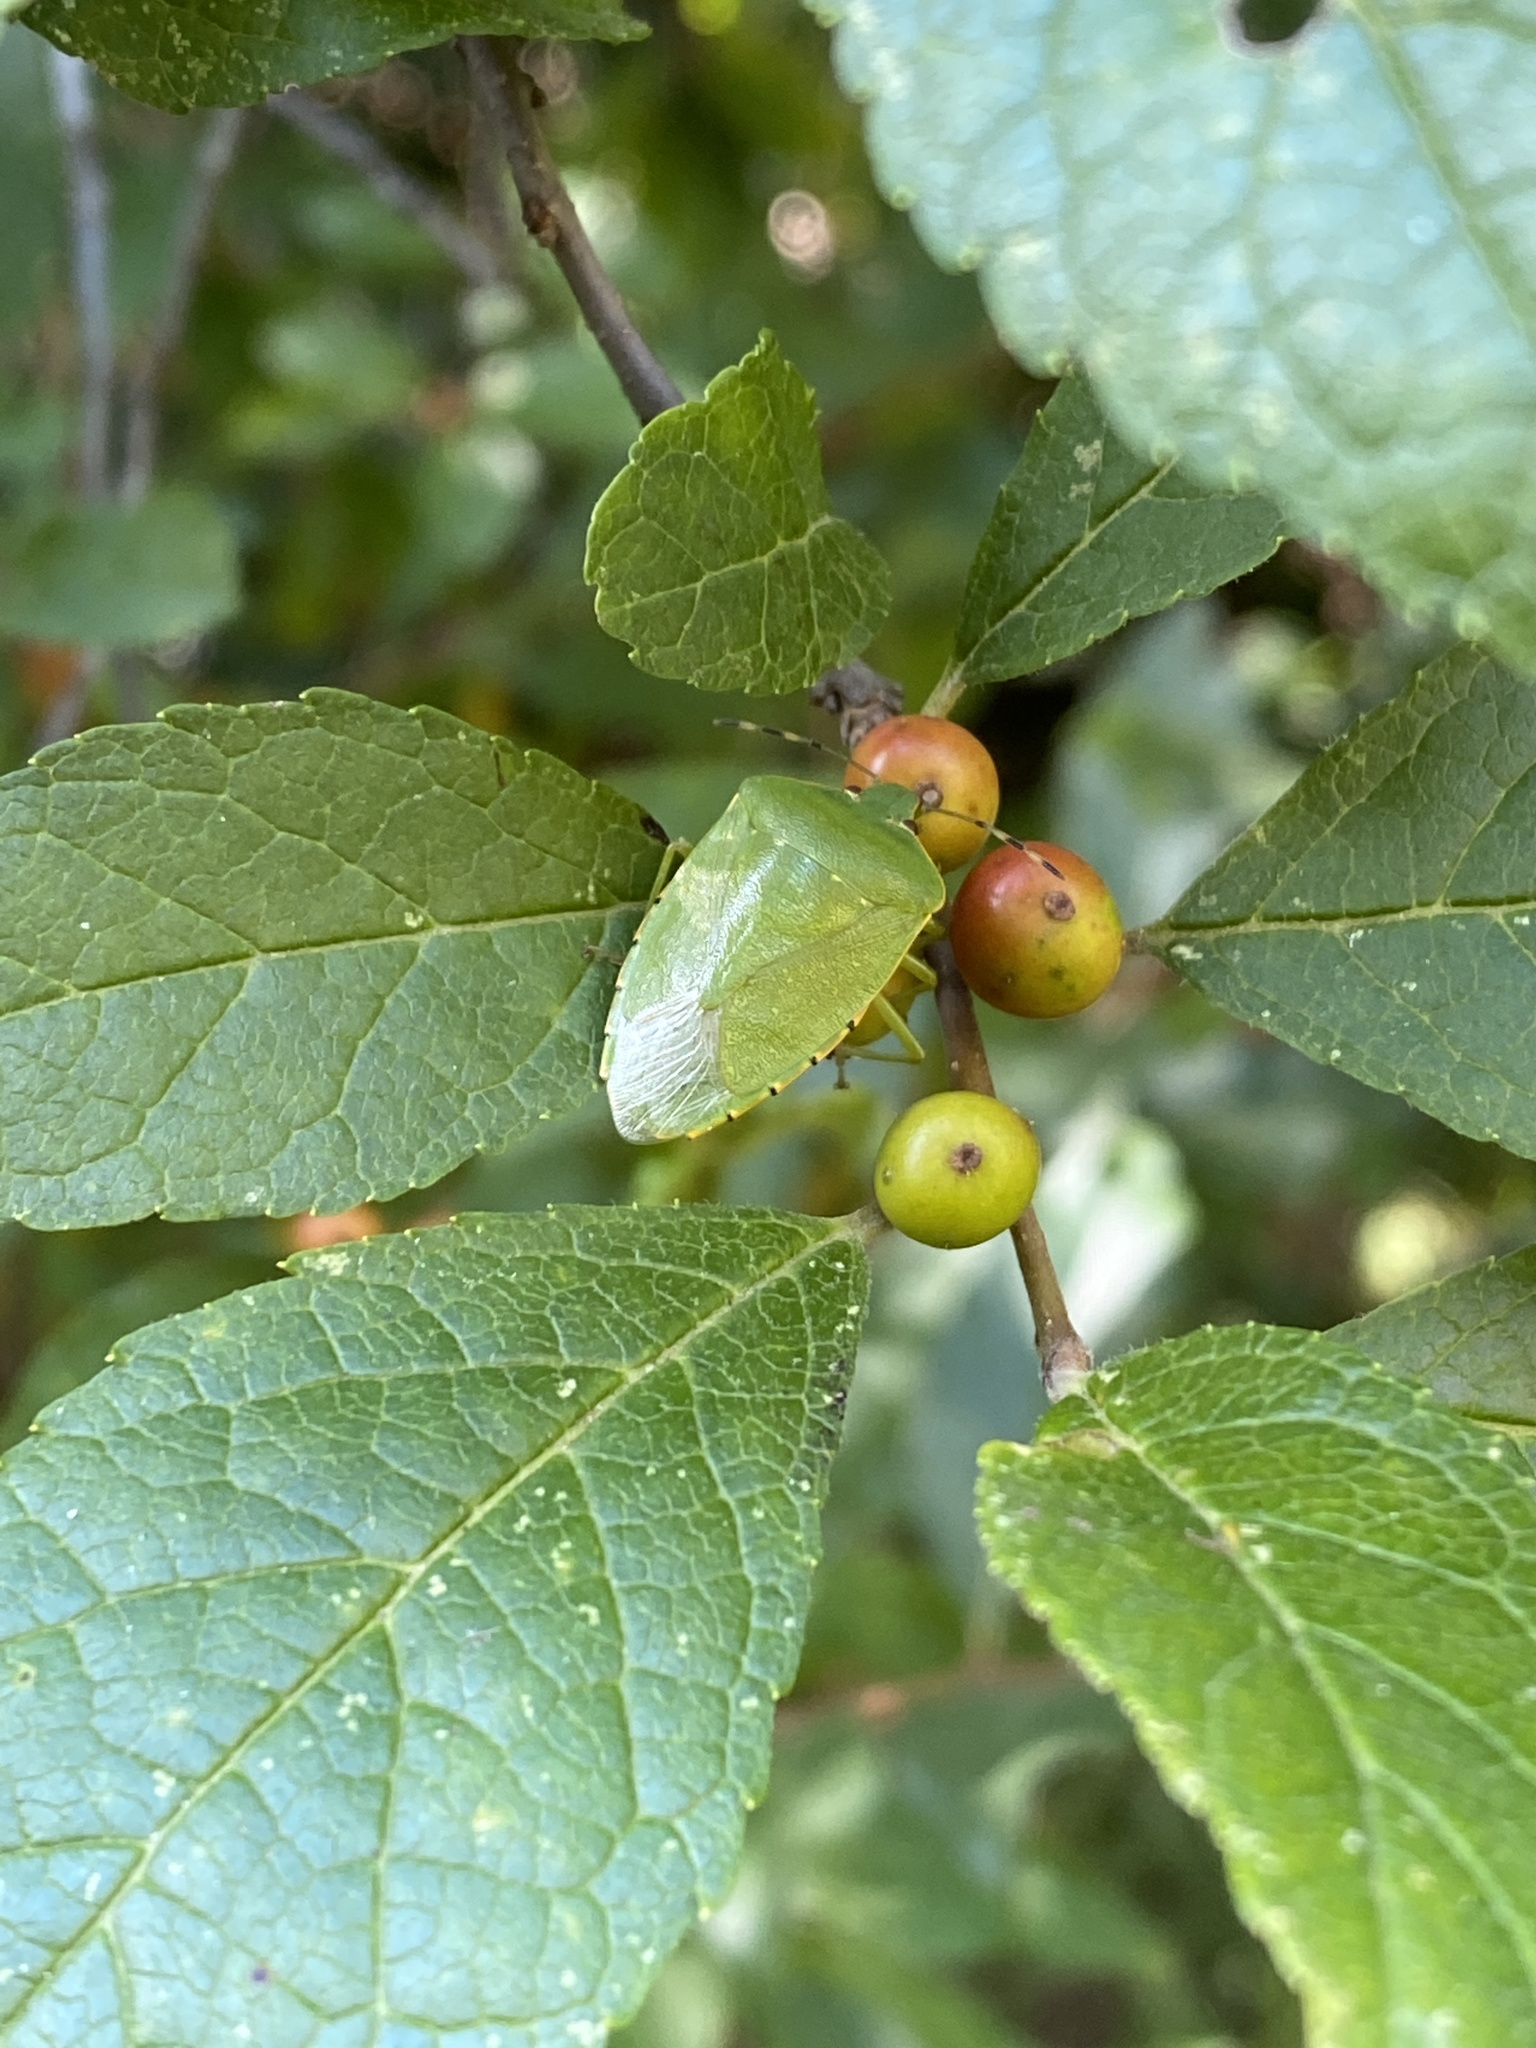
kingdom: Animalia
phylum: Arthropoda
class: Insecta
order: Hemiptera
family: Pentatomidae
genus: Chinavia
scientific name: Chinavia hilaris
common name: Green stink bug
